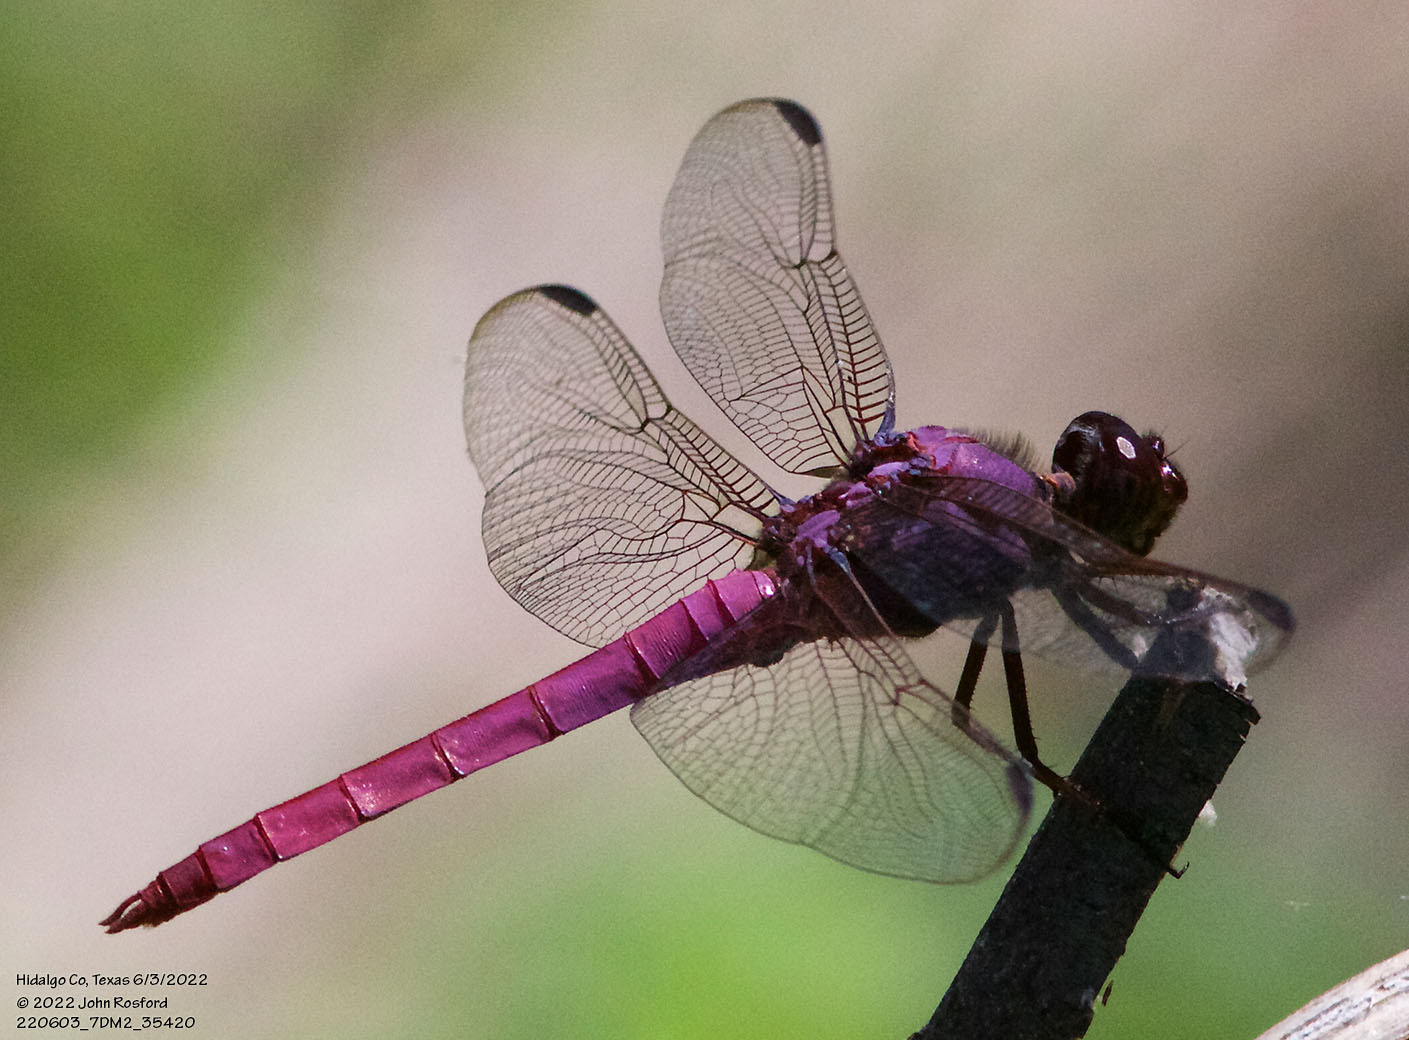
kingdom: Animalia
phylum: Arthropoda
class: Insecta
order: Odonata
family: Libellulidae
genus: Orthemis
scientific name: Orthemis ferruginea
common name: Roseate skimmer
